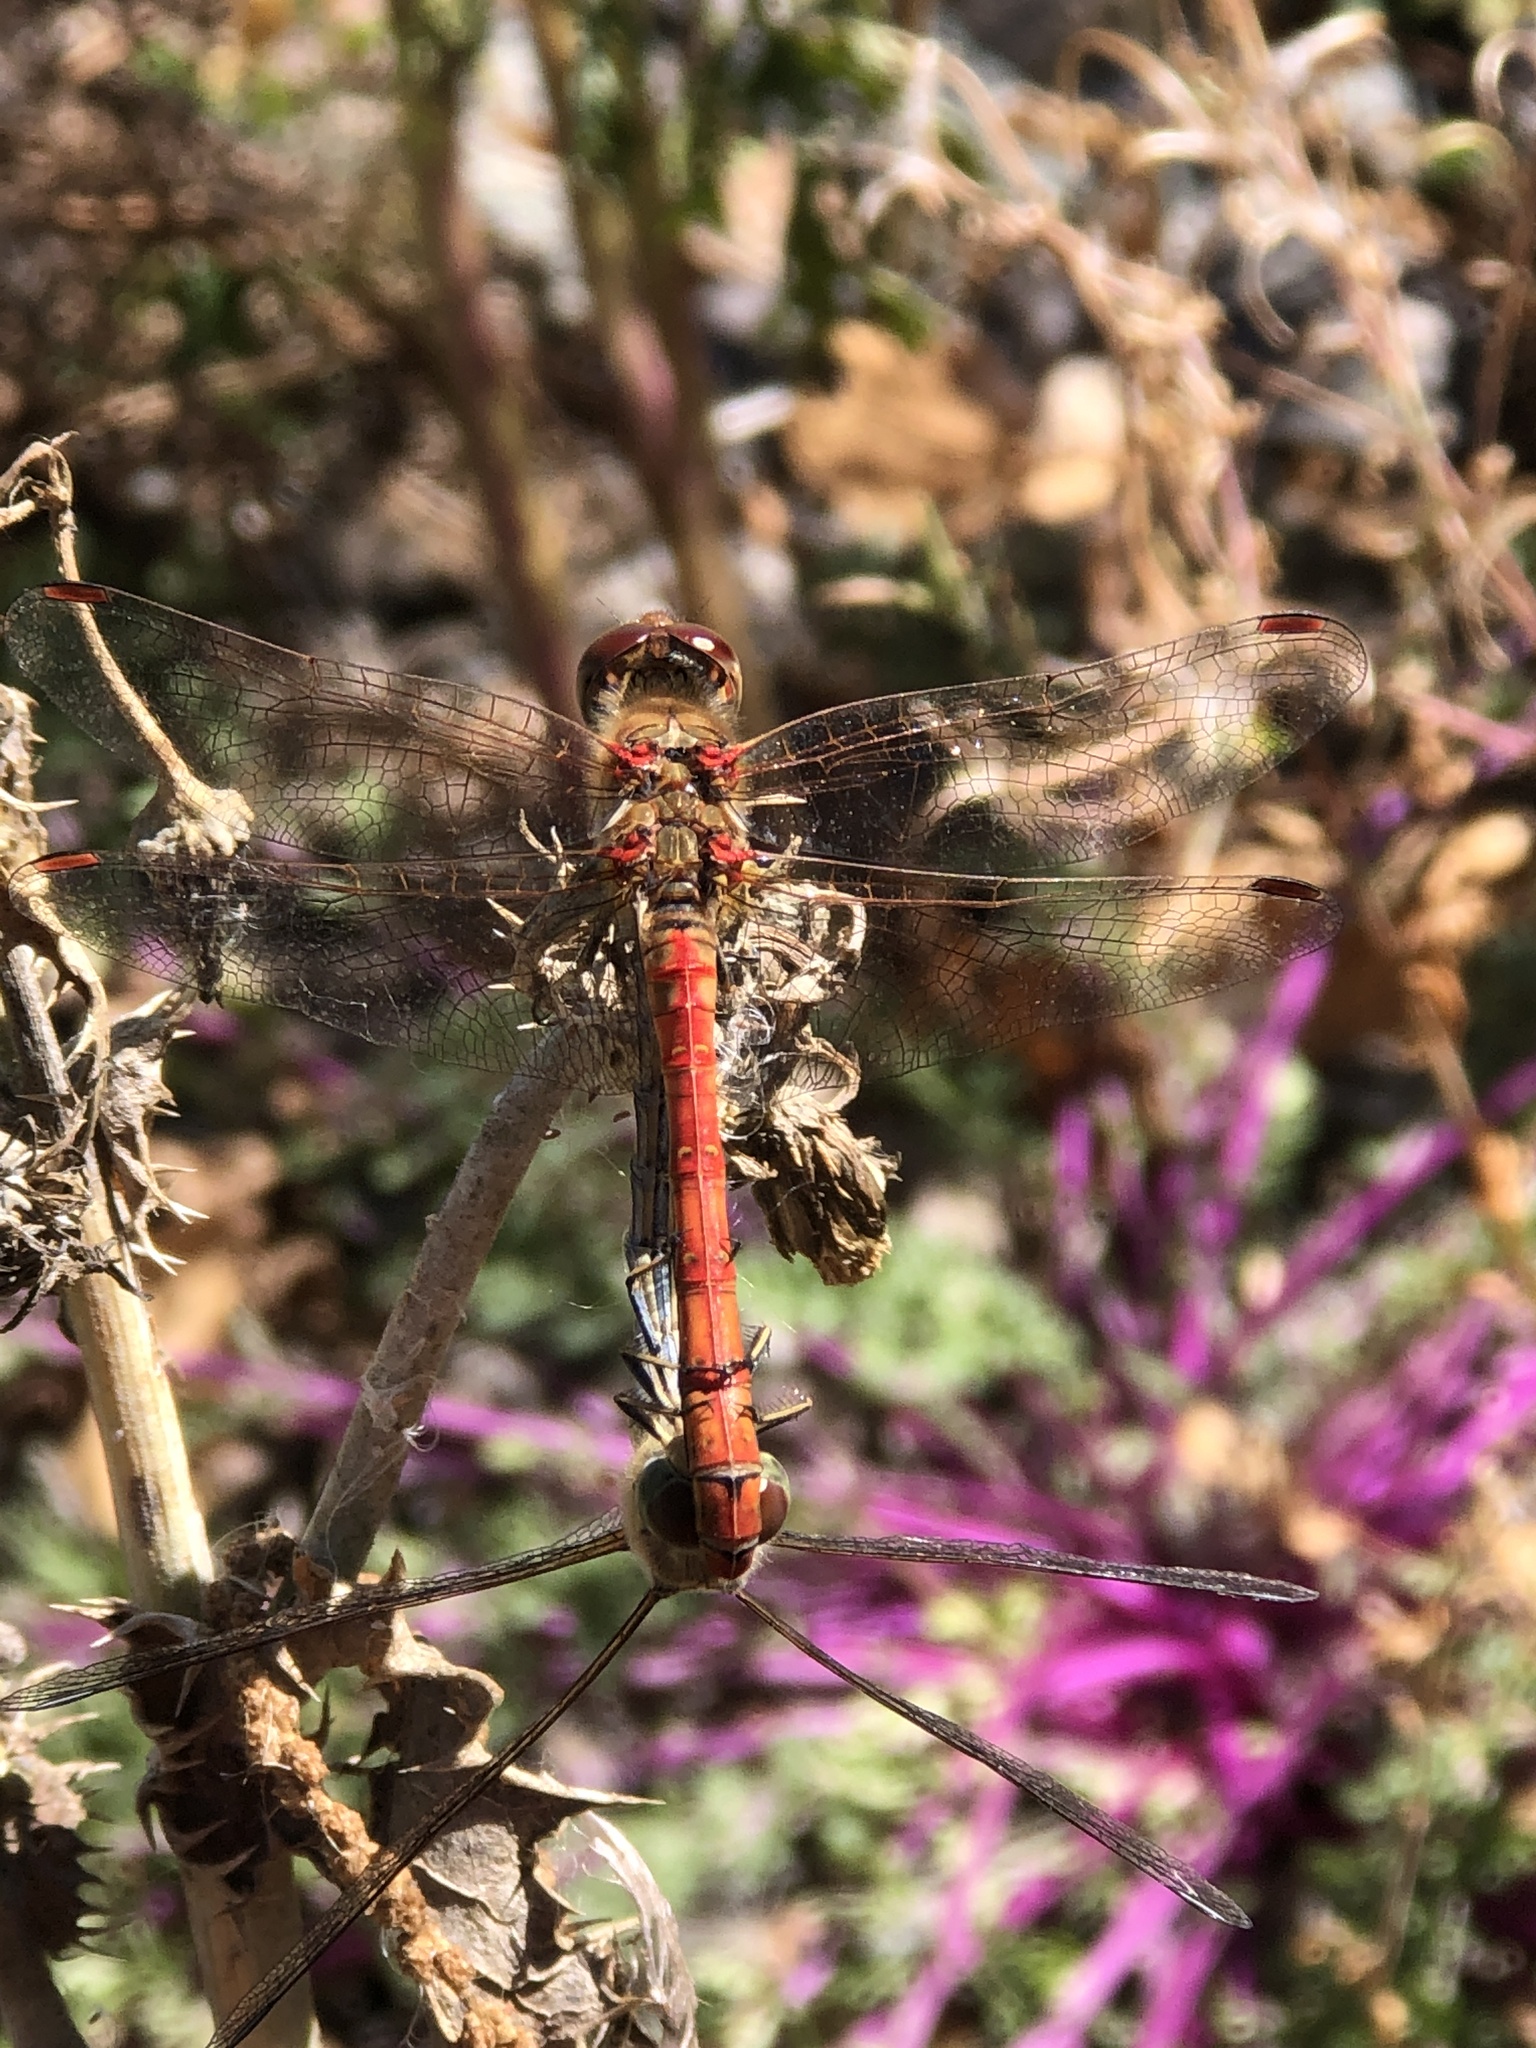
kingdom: Animalia
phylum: Arthropoda
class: Insecta
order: Odonata
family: Libellulidae
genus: Sympetrum
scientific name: Sympetrum striolatum
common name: Common darter
